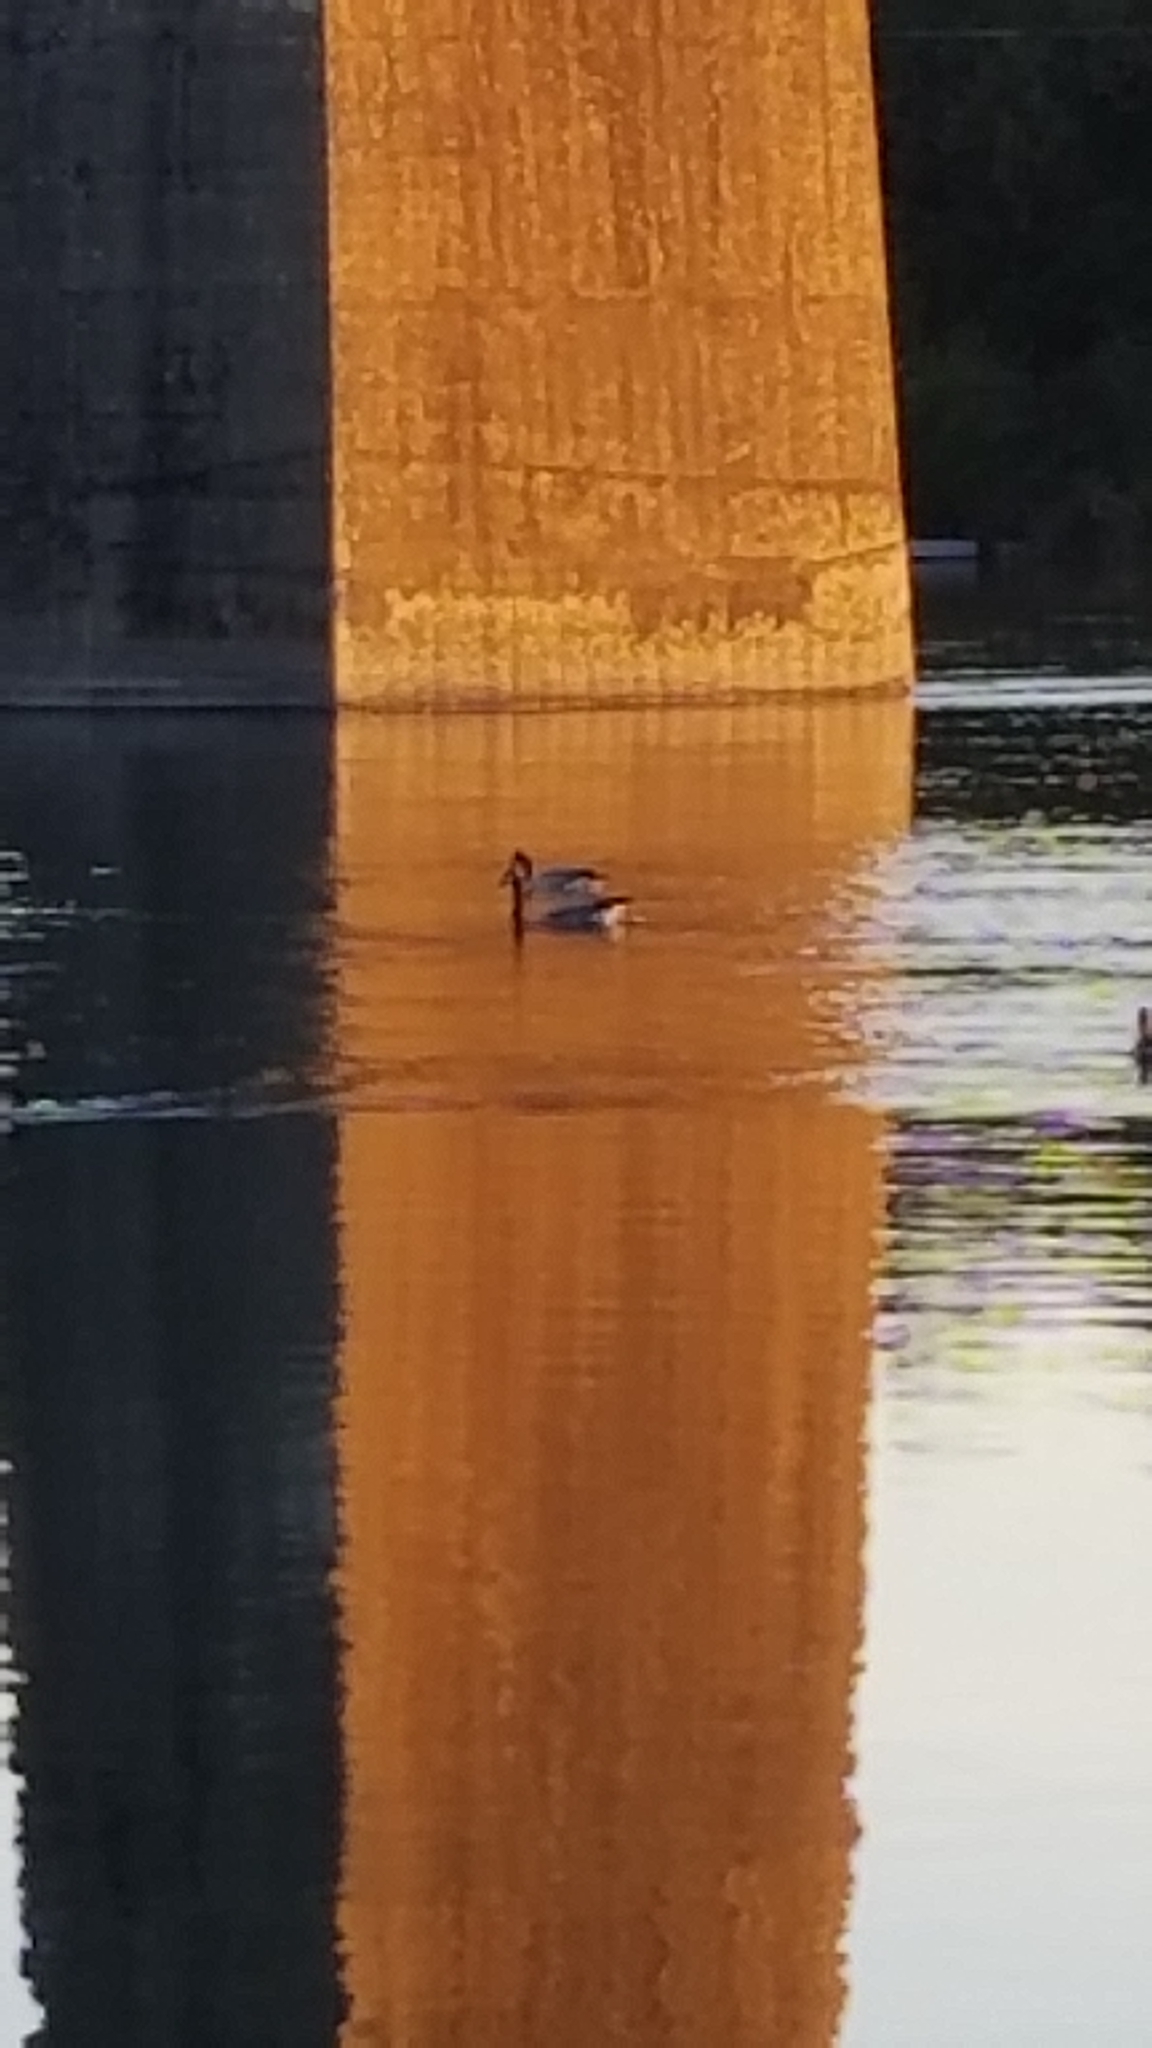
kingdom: Animalia
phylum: Chordata
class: Aves
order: Anseriformes
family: Anatidae
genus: Branta
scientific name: Branta canadensis
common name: Canada goose
